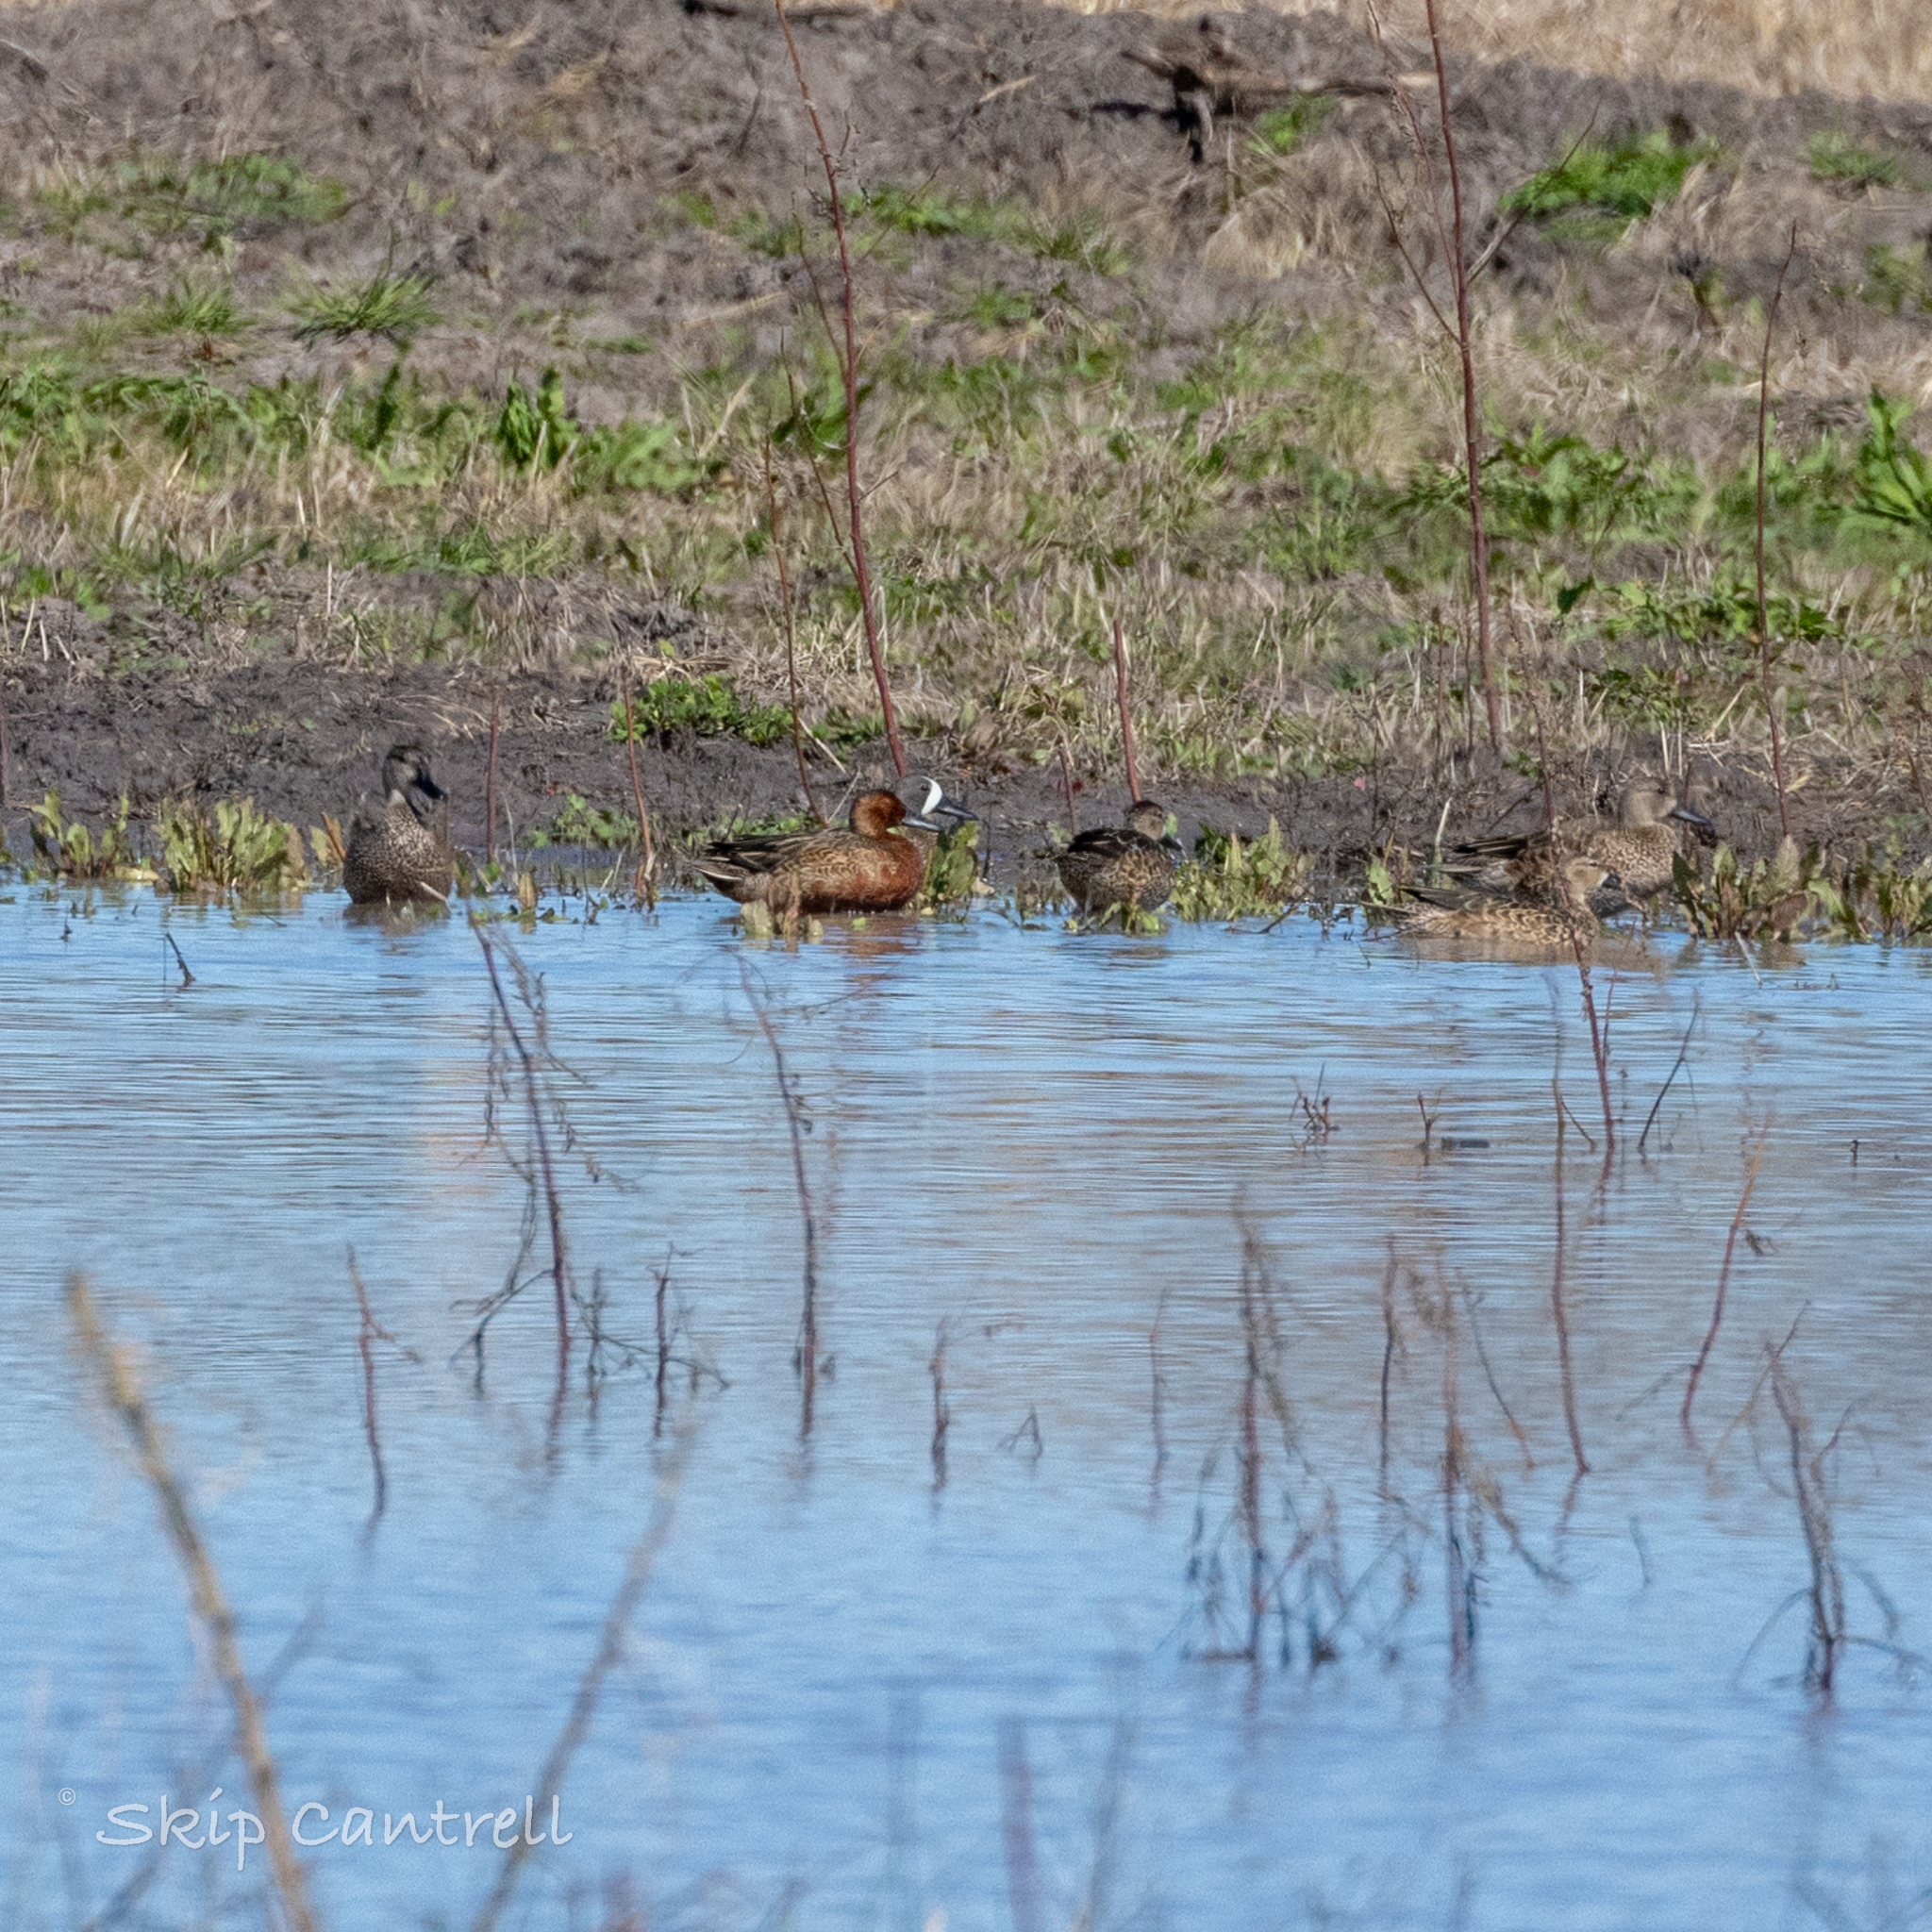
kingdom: Animalia
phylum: Chordata
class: Aves
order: Anseriformes
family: Anatidae
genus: Spatula
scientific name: Spatula cyanoptera
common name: Cinnamon teal
